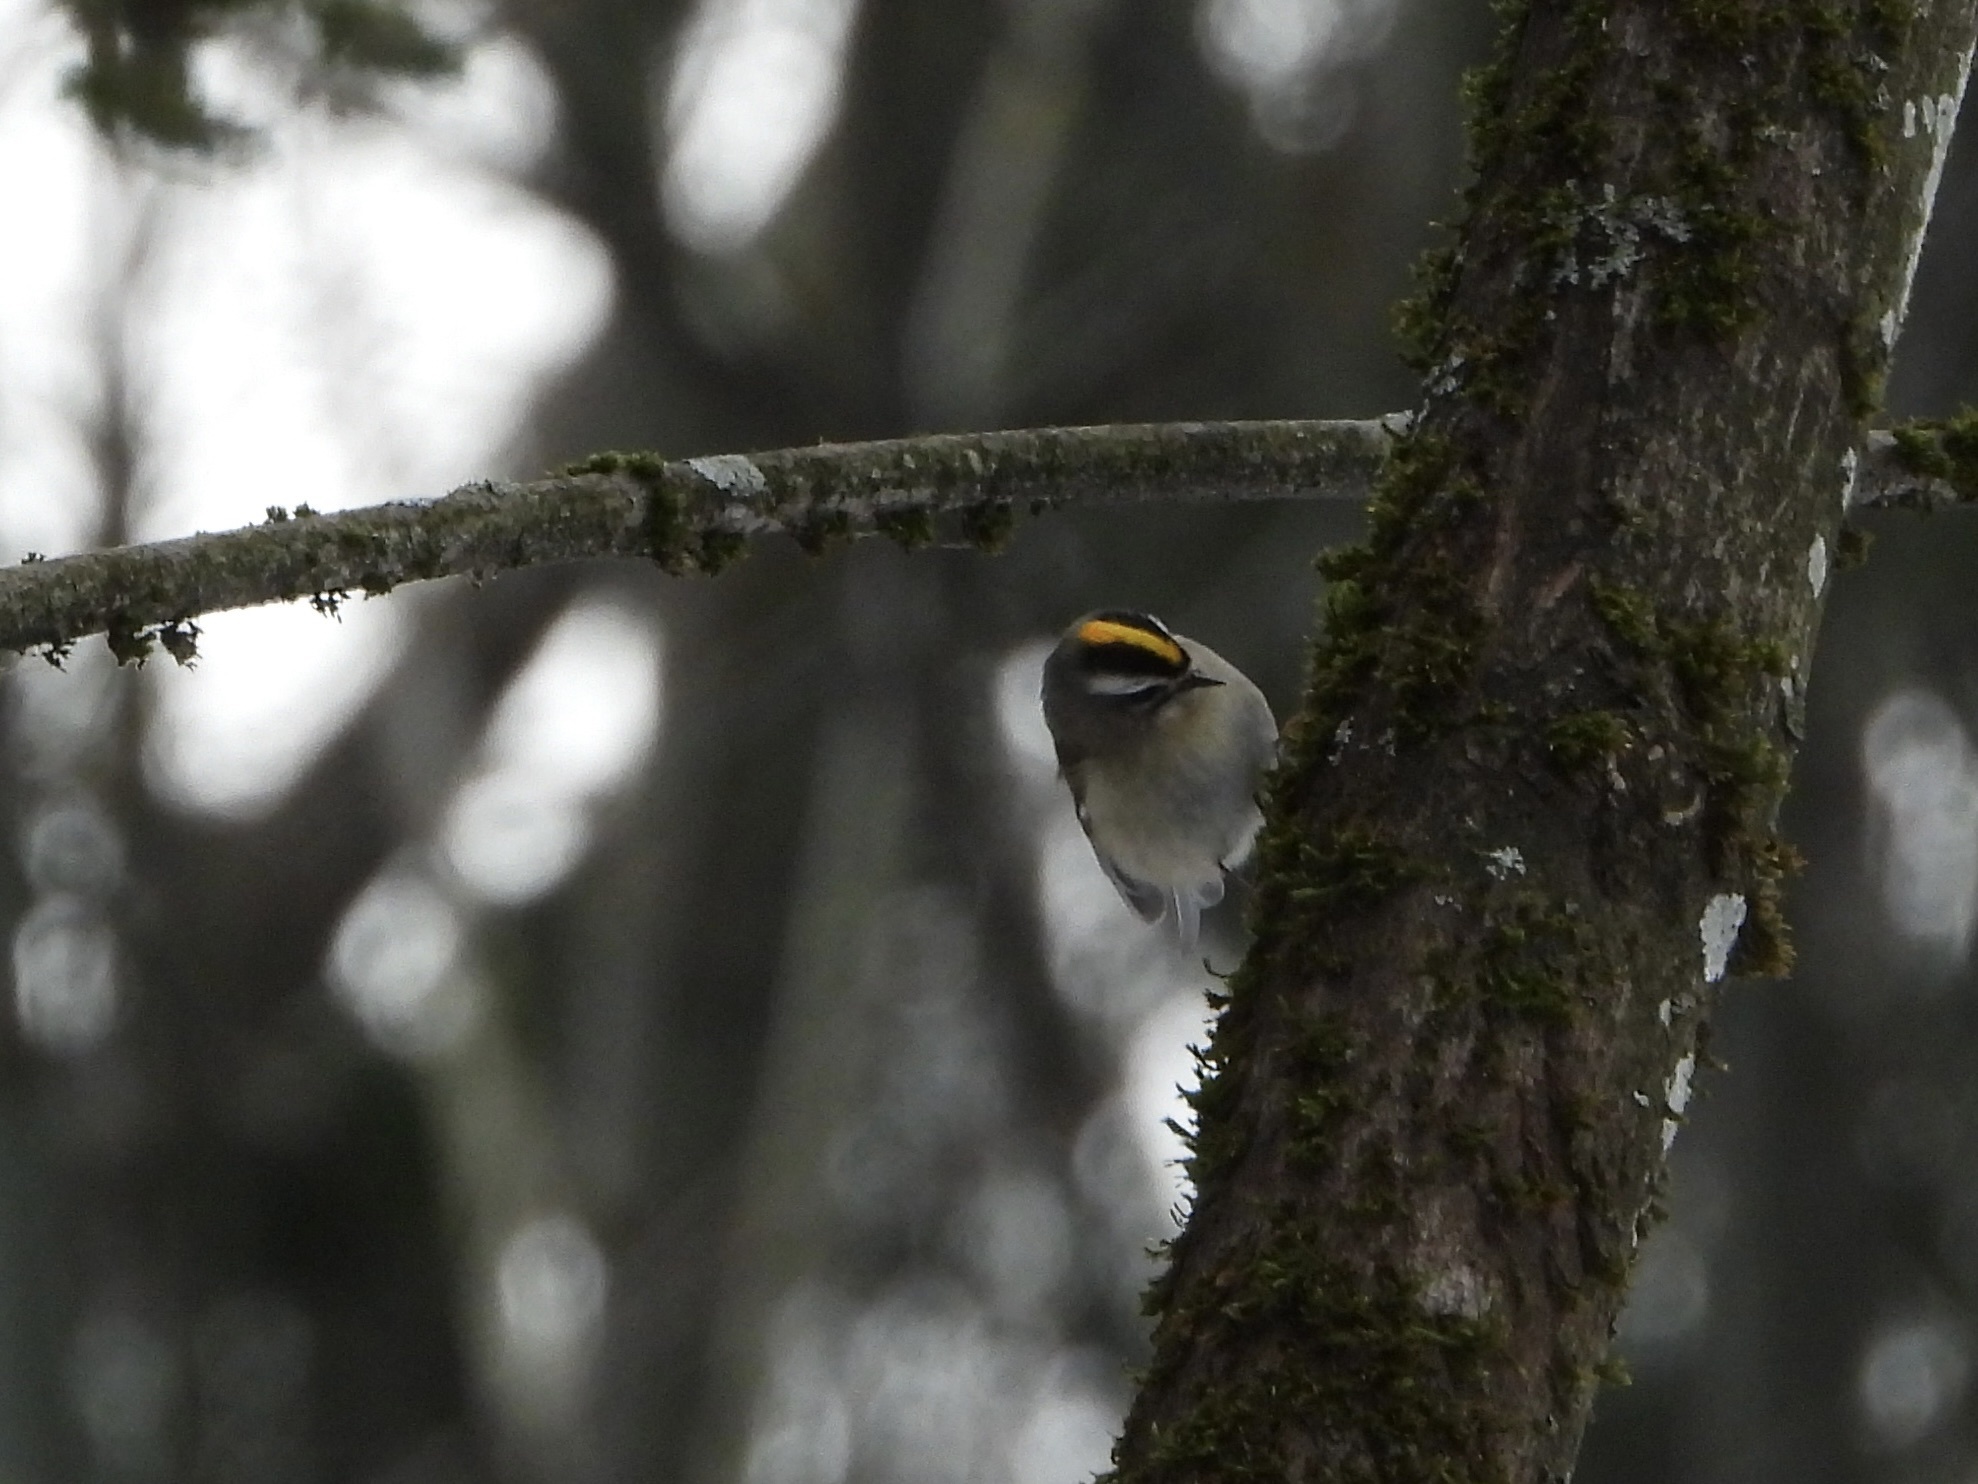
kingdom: Animalia
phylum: Chordata
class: Aves
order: Passeriformes
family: Regulidae
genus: Regulus
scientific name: Regulus satrapa
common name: Golden-crowned kinglet
